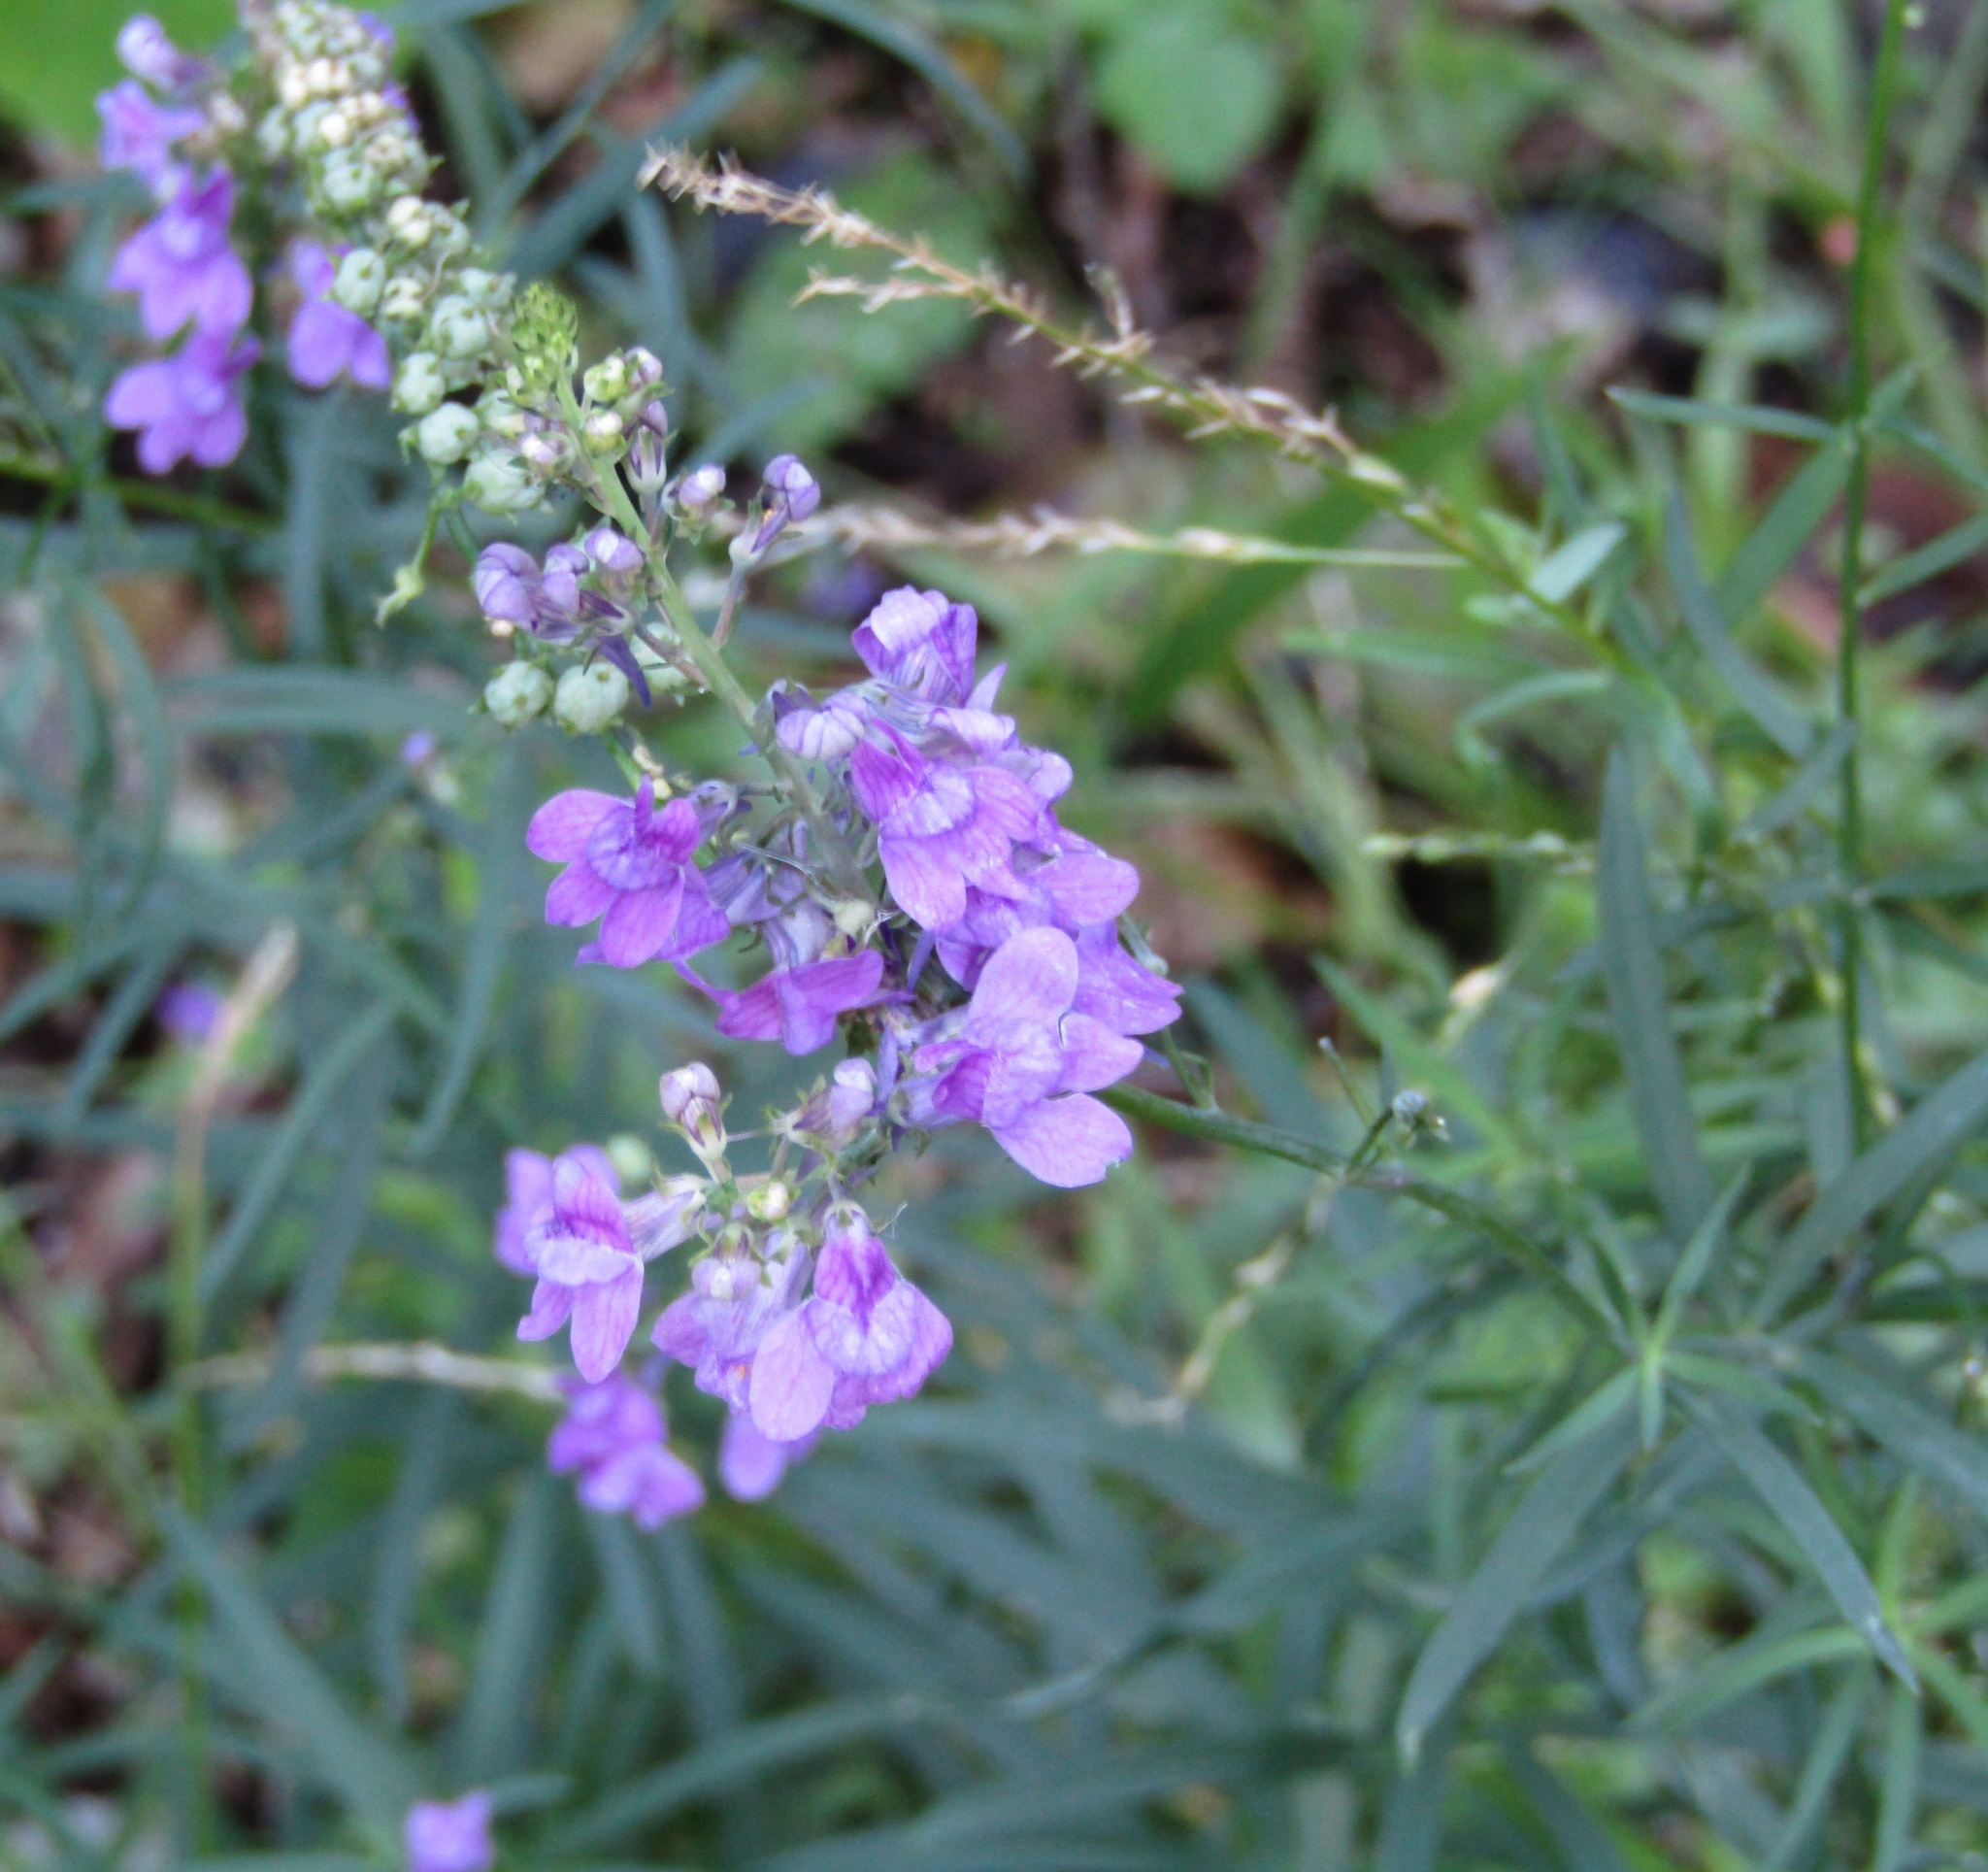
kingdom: Plantae
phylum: Tracheophyta
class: Magnoliopsida
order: Lamiales
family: Plantaginaceae
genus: Linaria
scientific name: Linaria purpurea
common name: Purple toadflax
